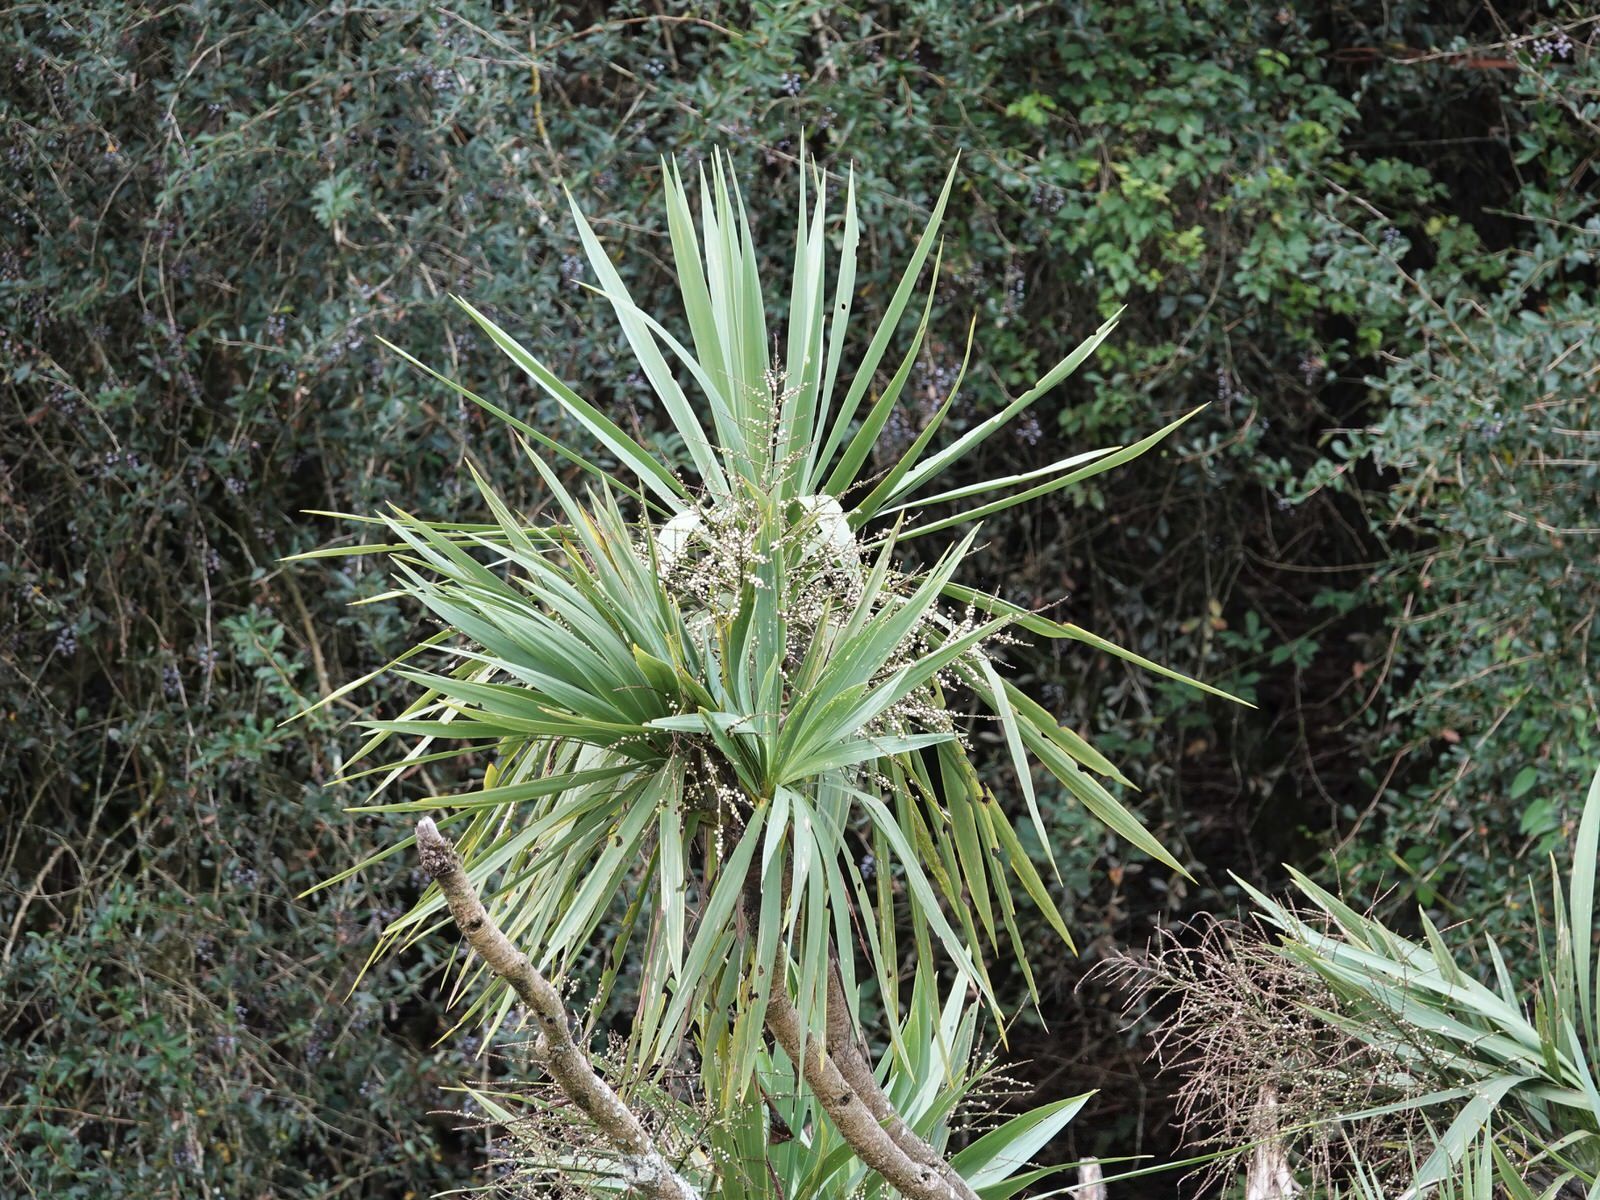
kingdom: Plantae
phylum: Tracheophyta
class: Liliopsida
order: Asparagales
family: Asparagaceae
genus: Cordyline
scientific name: Cordyline australis
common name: Cabbage-palm
